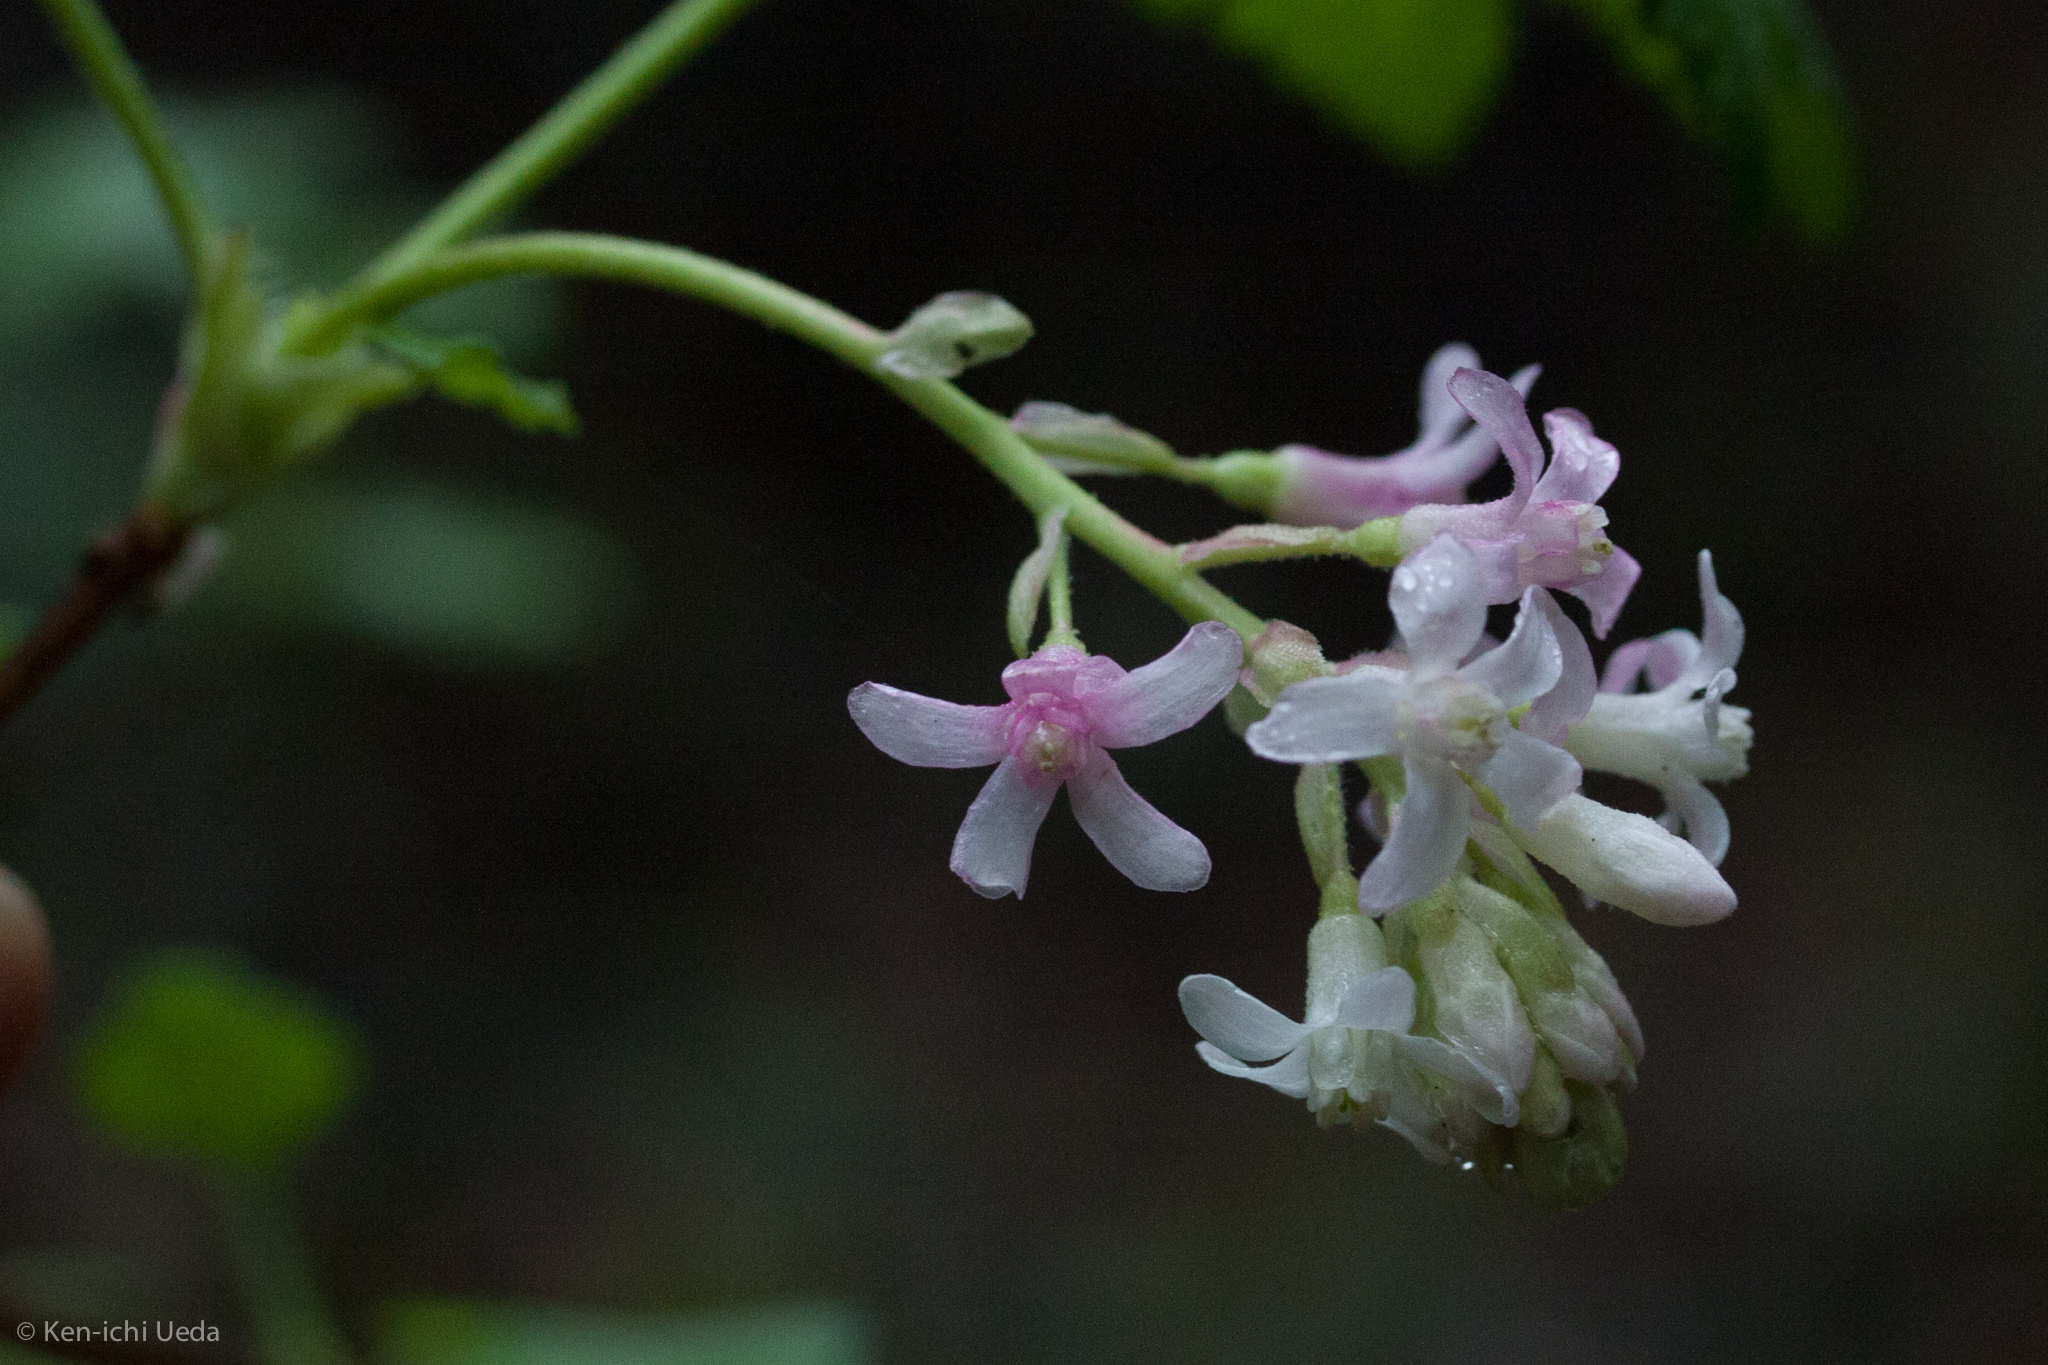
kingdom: Plantae
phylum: Tracheophyta
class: Magnoliopsida
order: Saxifragales
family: Grossulariaceae
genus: Ribes
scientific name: Ribes sanguineum
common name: Flowering currant
